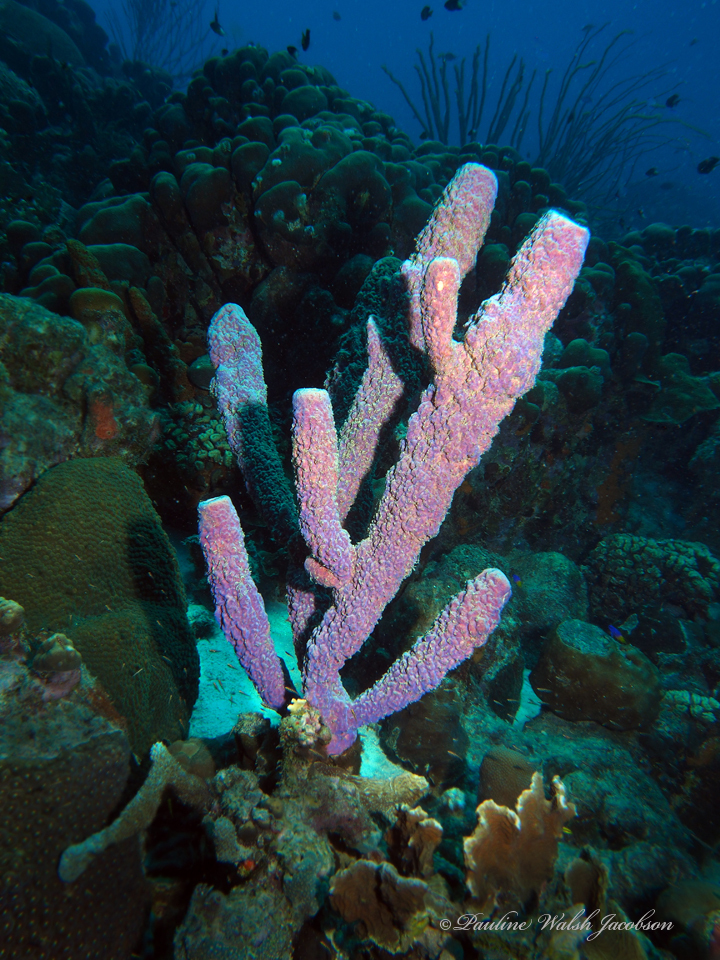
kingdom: Animalia
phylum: Porifera
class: Demospongiae
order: Verongiida
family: Aplysinidae
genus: Aplysina
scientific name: Aplysina archeri
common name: Stove-pipe sponge
